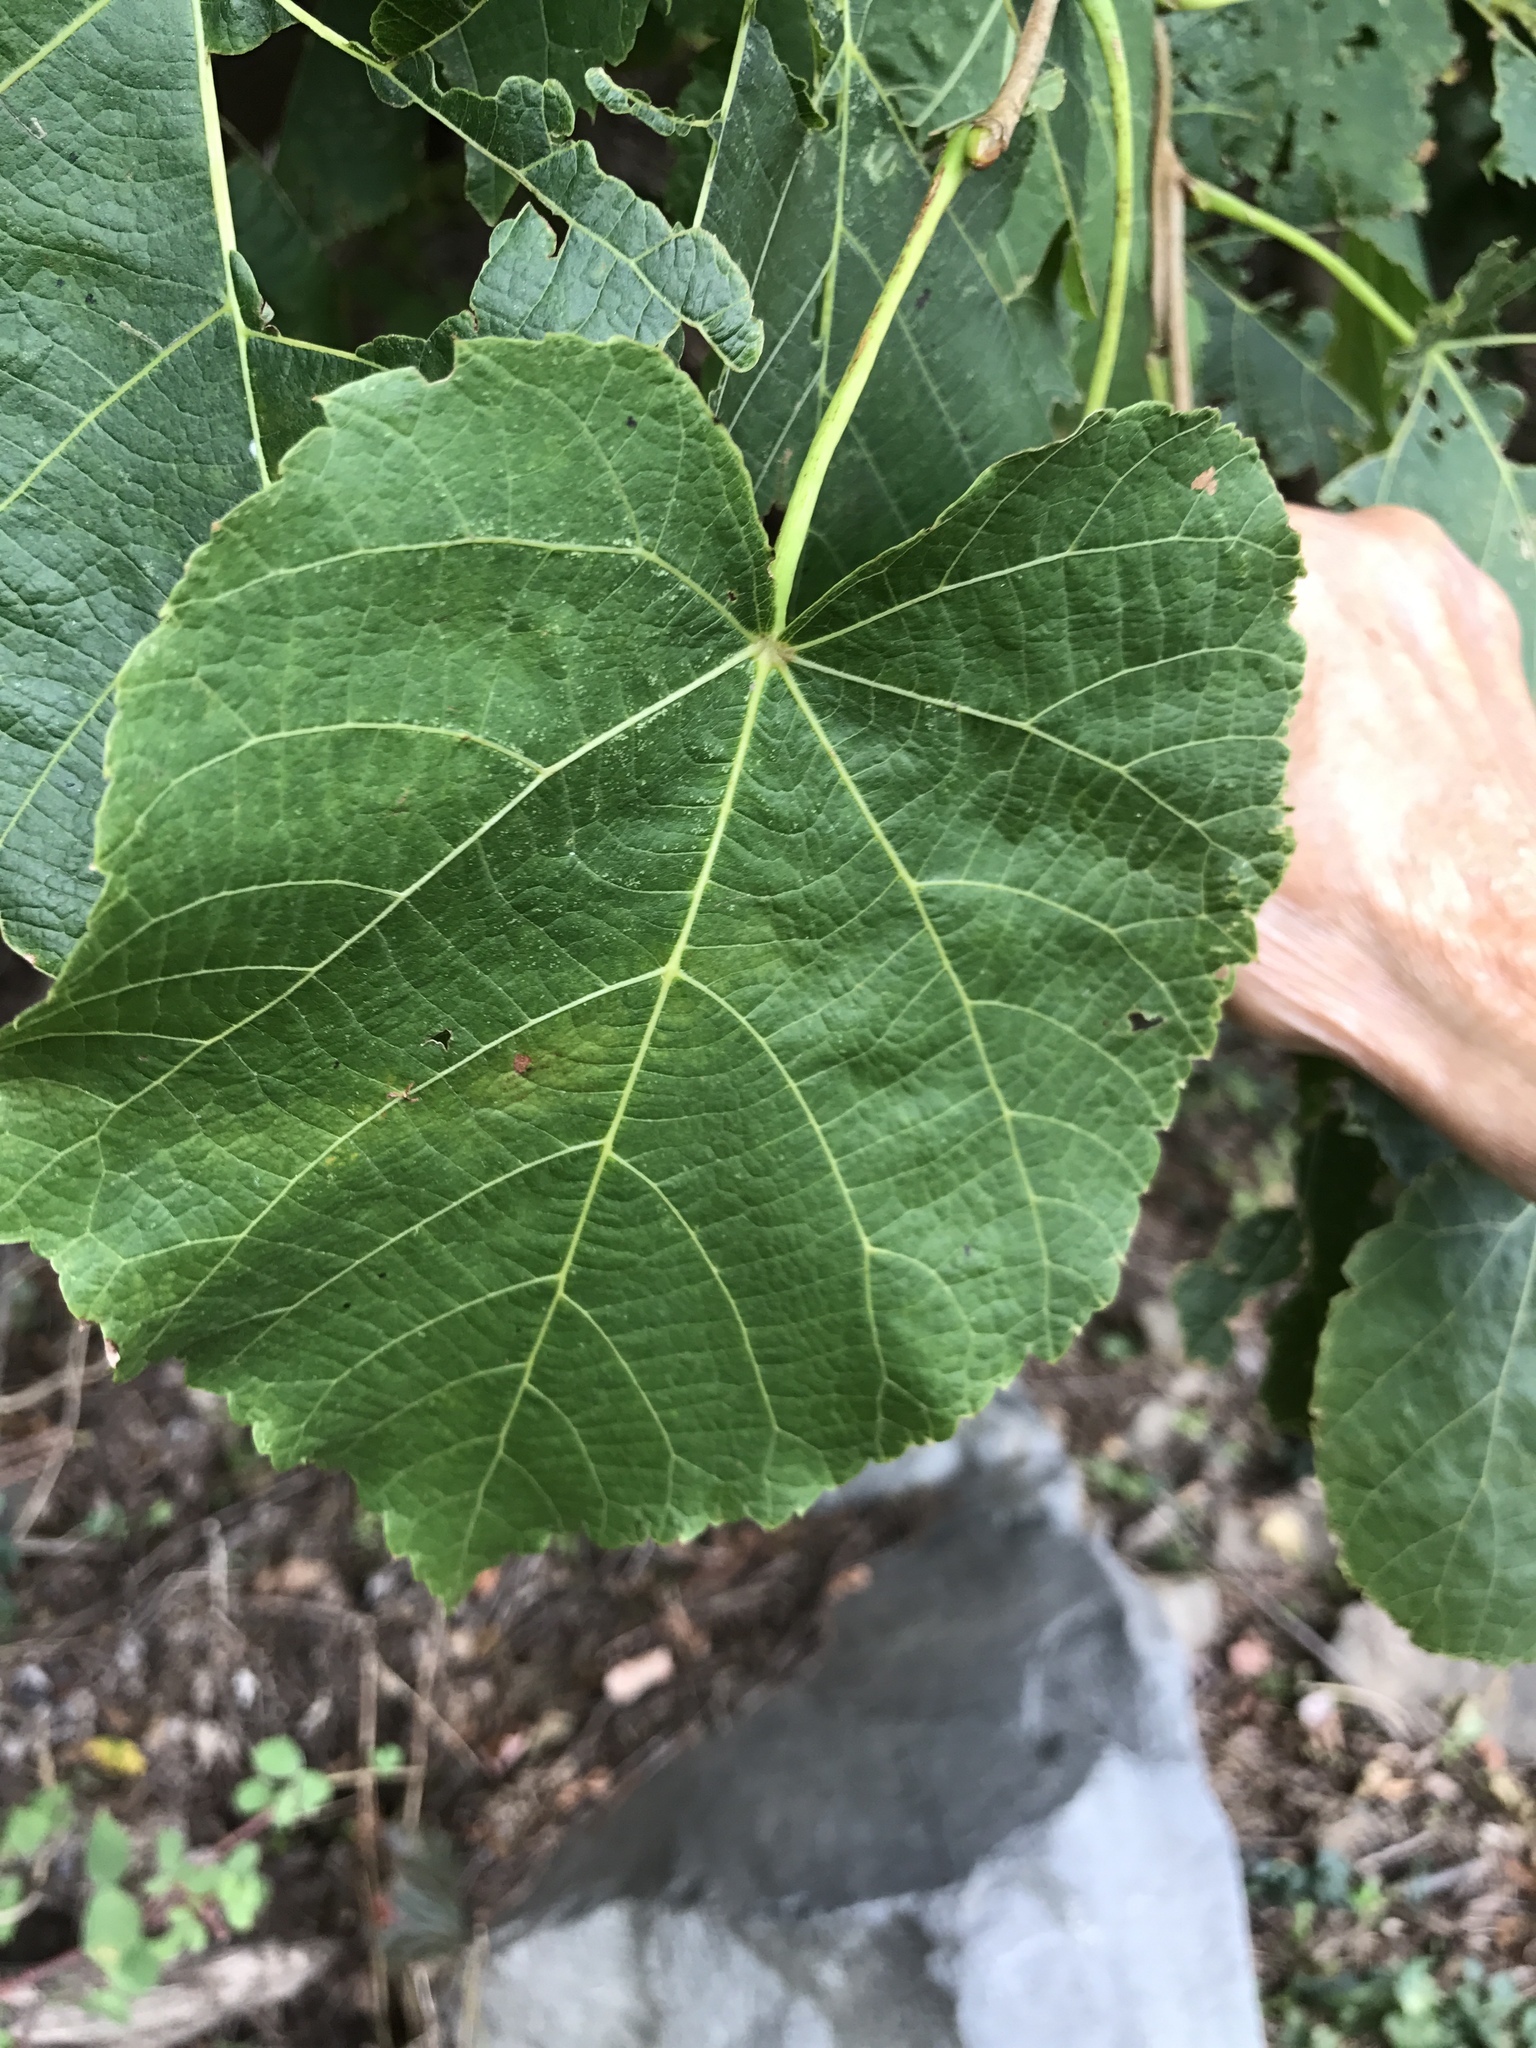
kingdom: Plantae
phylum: Tracheophyta
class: Magnoliopsida
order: Malvales
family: Malvaceae
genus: Tilia
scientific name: Tilia americana
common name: Basswood
